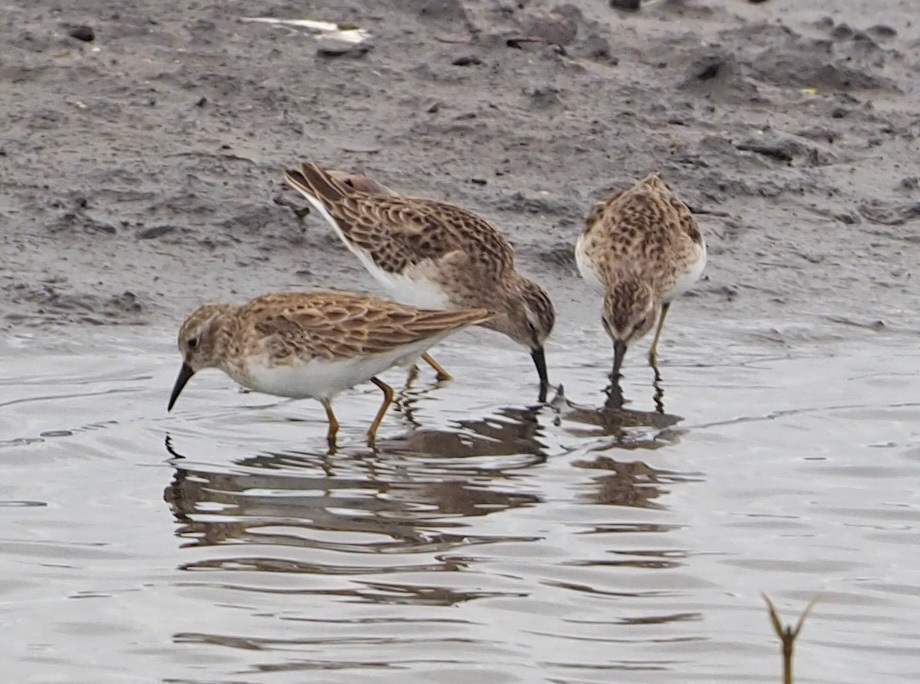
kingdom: Animalia
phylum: Chordata
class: Aves
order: Charadriiformes
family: Scolopacidae
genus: Calidris
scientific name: Calidris minutilla
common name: Least sandpiper
